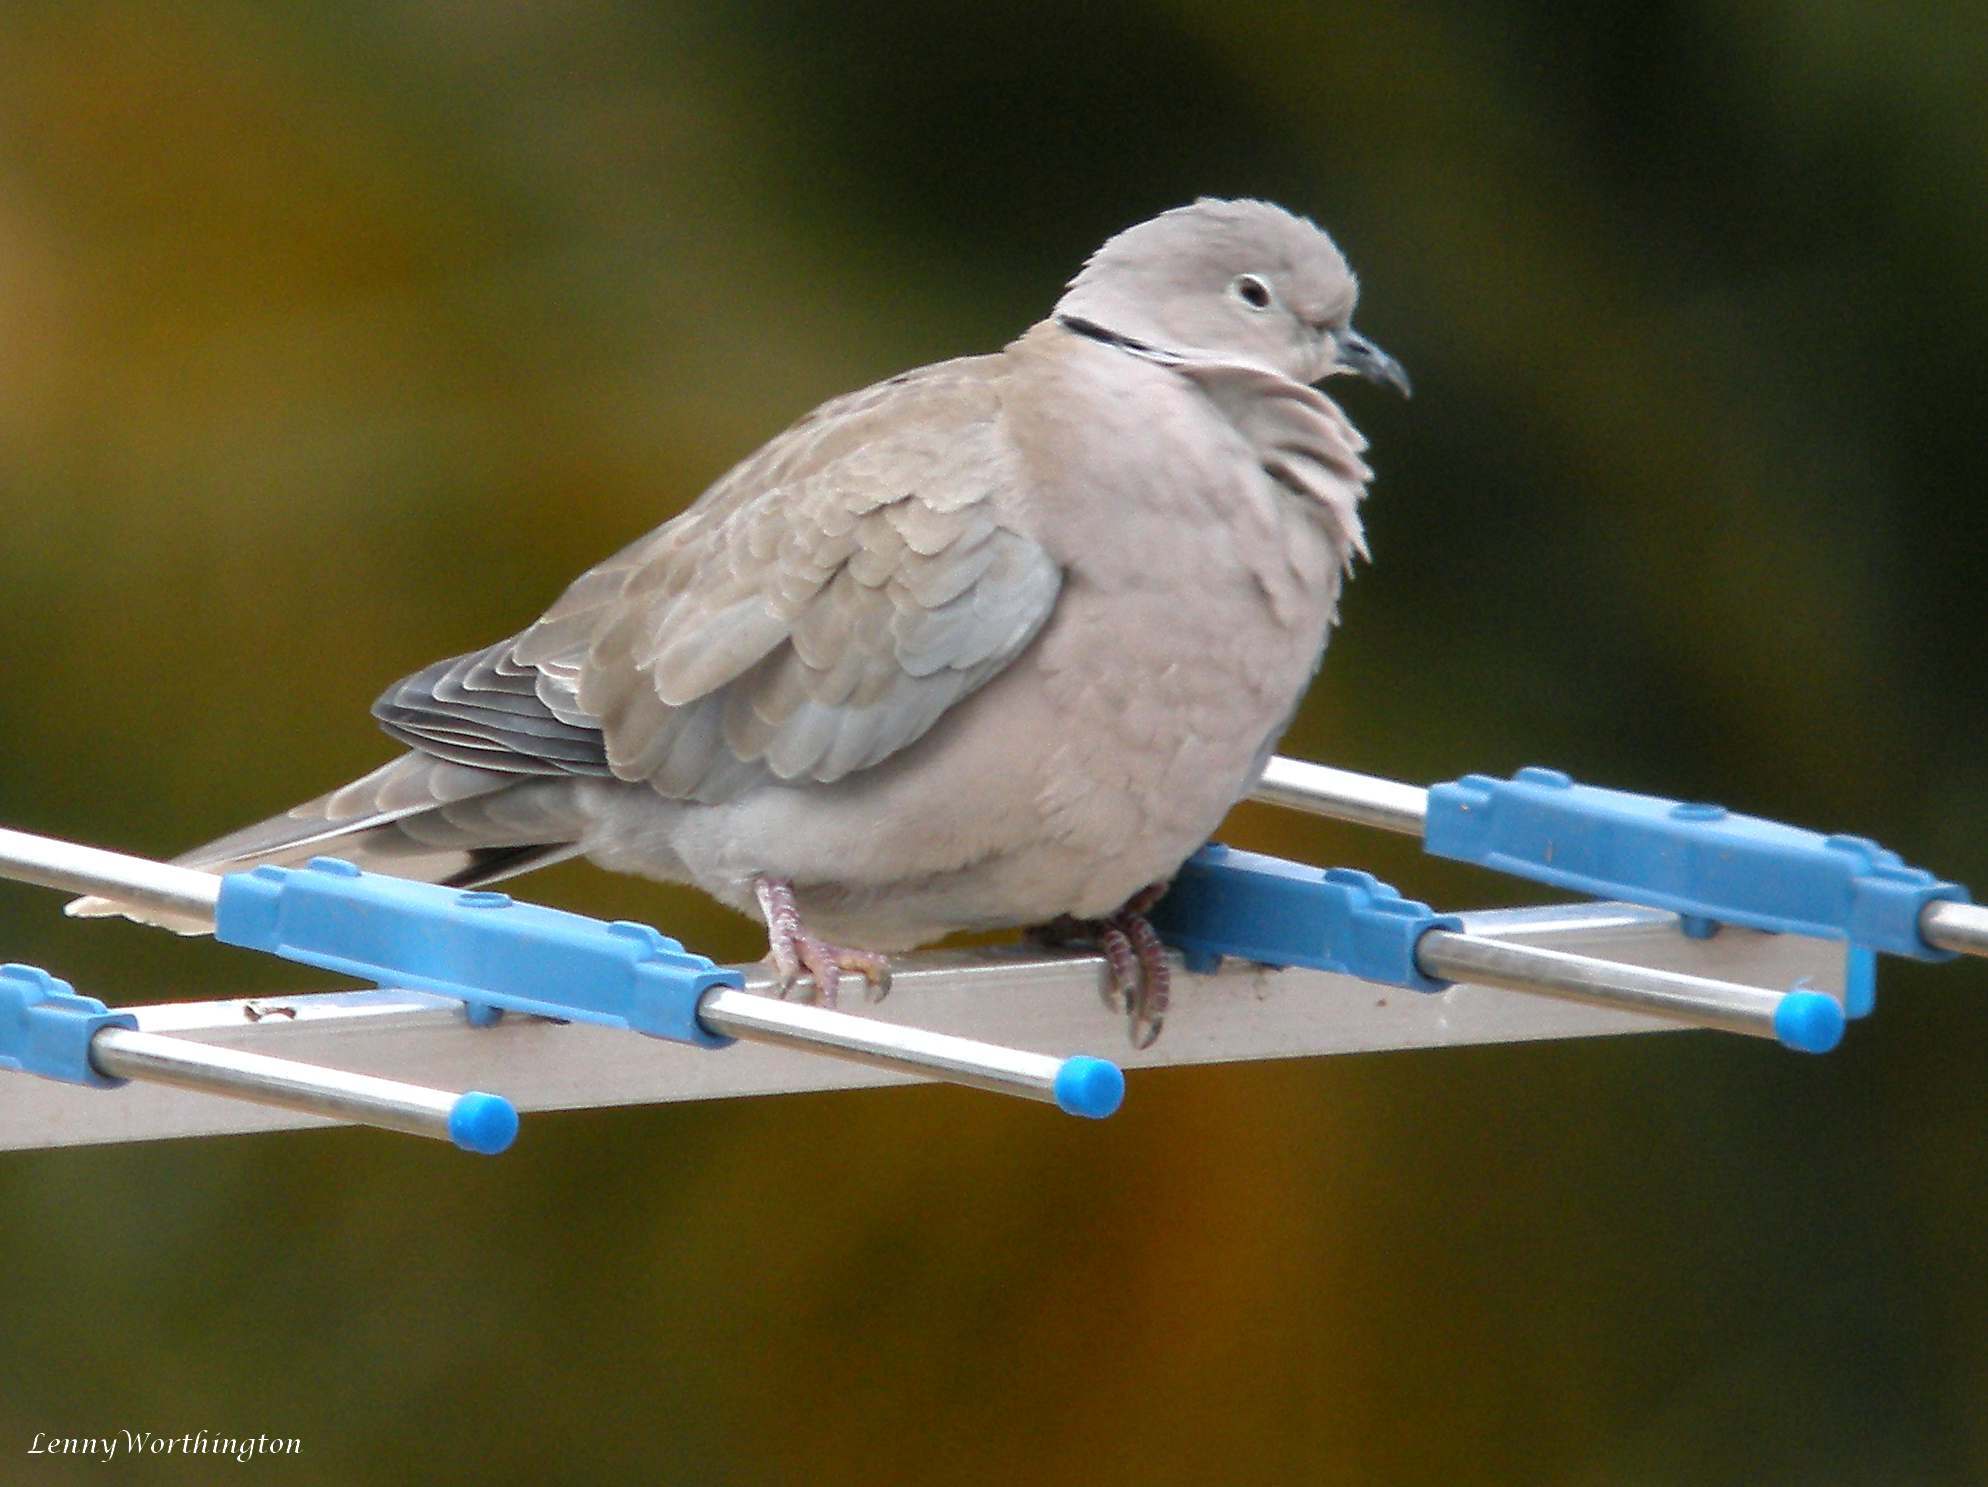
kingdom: Animalia
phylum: Chordata
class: Aves
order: Columbiformes
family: Columbidae
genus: Streptopelia
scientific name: Streptopelia decaocto
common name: Eurasian collared dove
